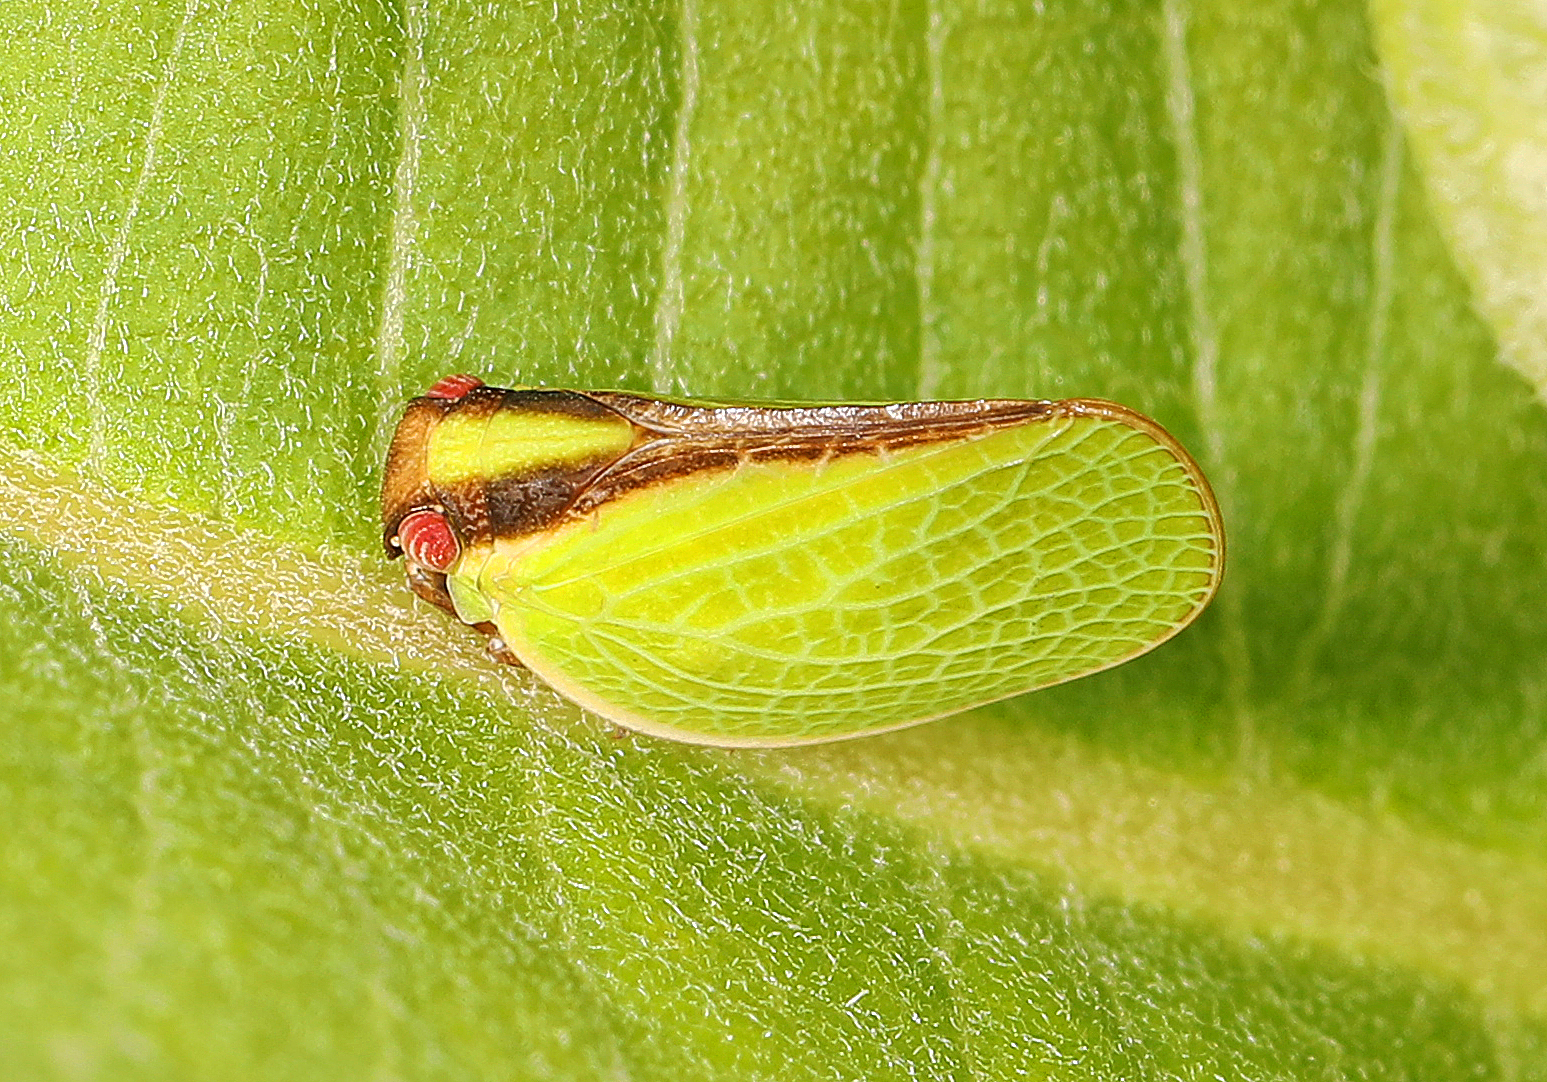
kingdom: Animalia
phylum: Arthropoda
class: Insecta
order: Hemiptera
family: Acanaloniidae
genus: Acanalonia
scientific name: Acanalonia bivittata
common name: Two-striped planthopper
